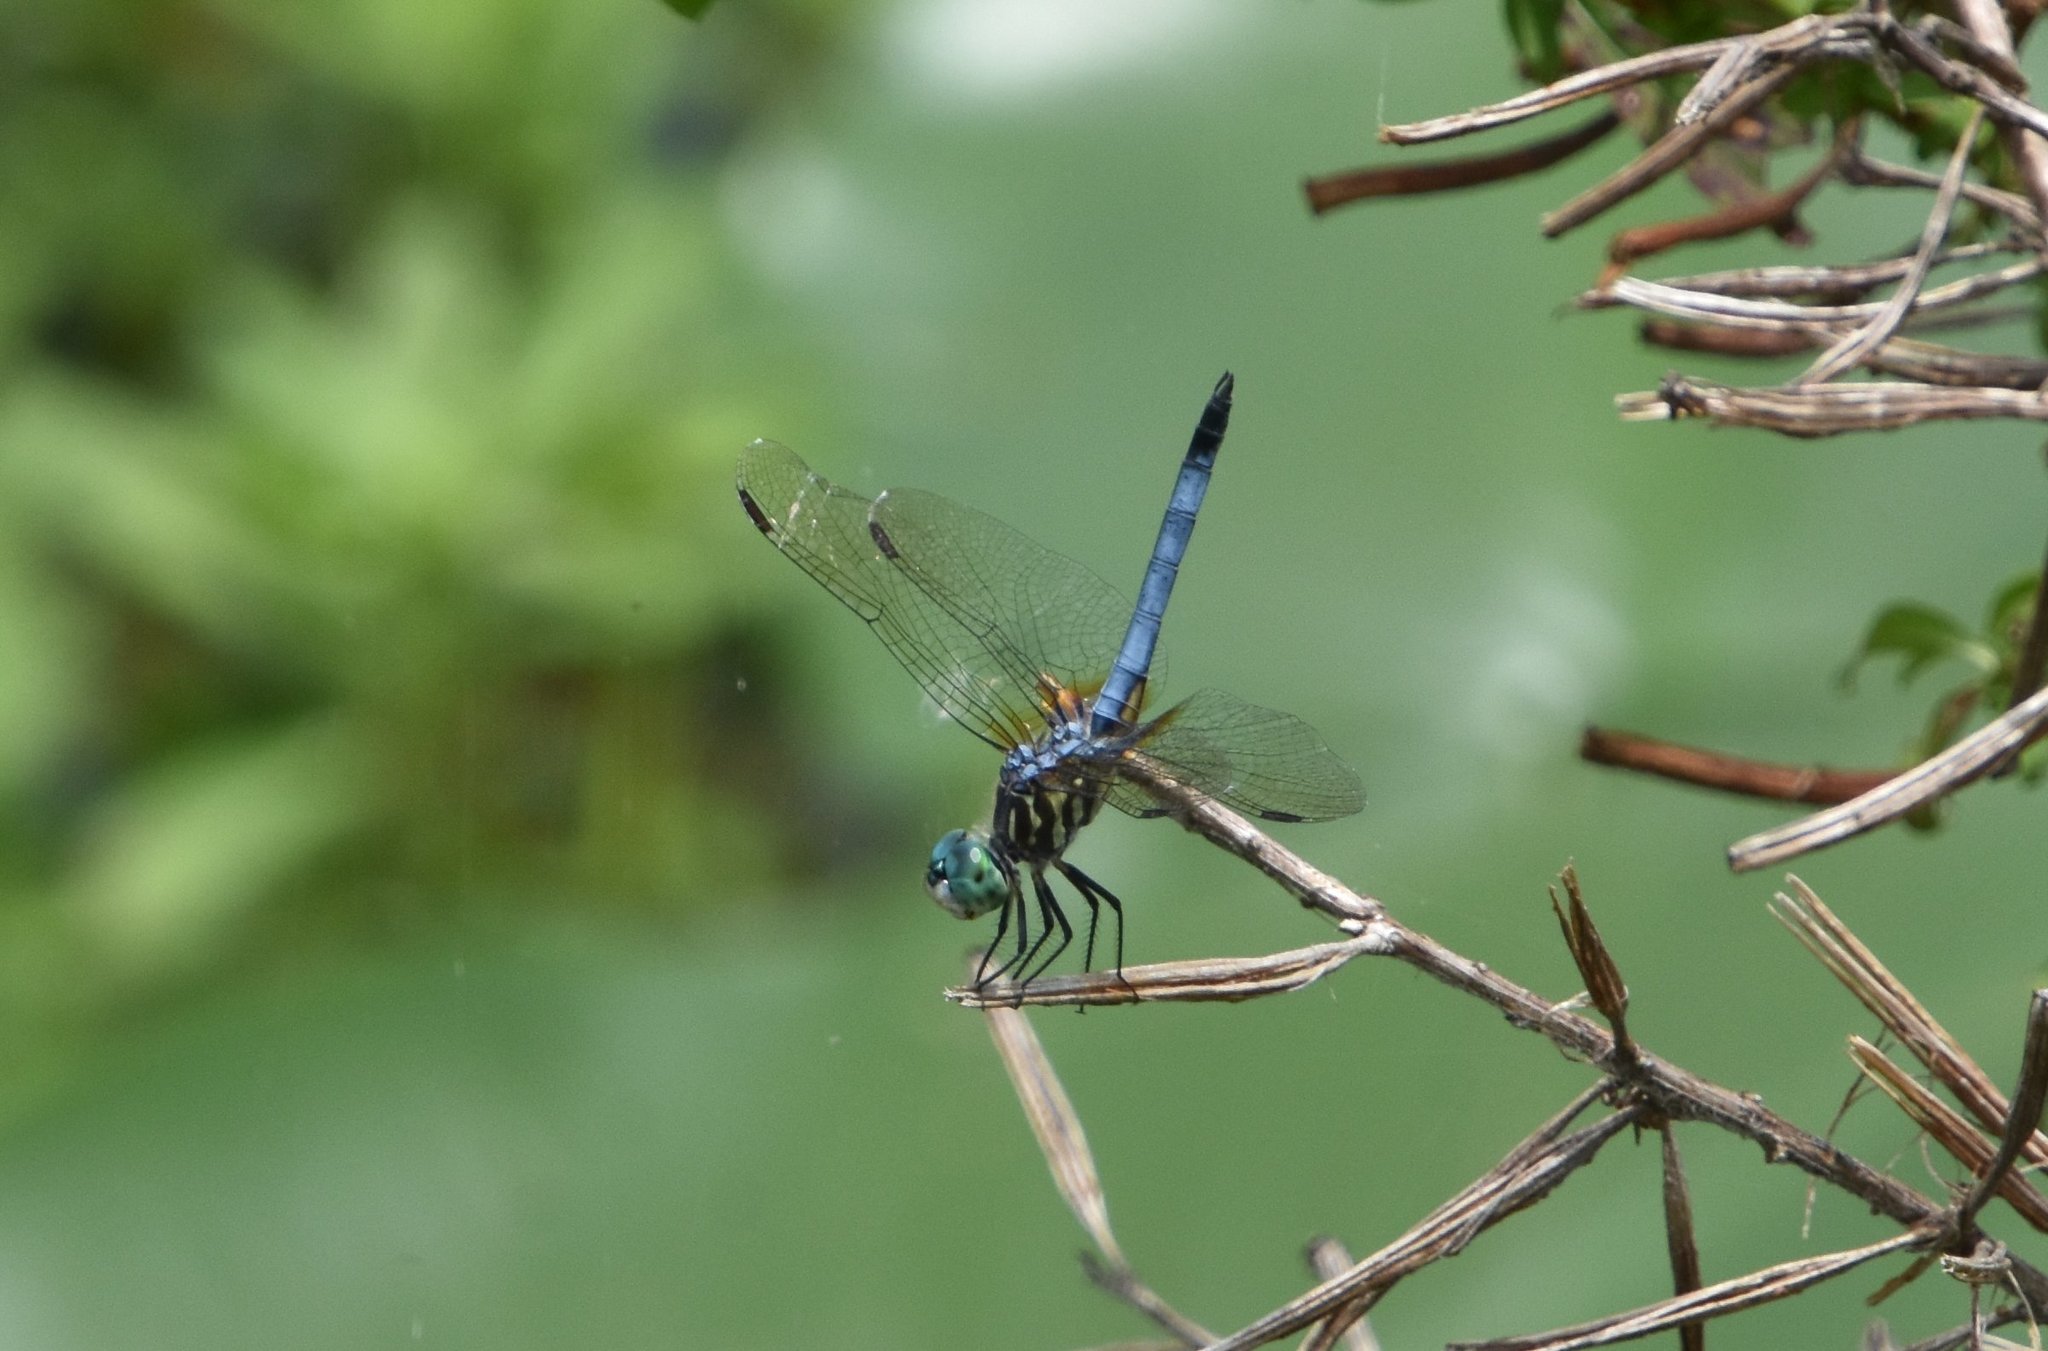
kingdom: Animalia
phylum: Arthropoda
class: Insecta
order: Odonata
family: Libellulidae
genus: Pachydiplax
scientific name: Pachydiplax longipennis
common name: Blue dasher
